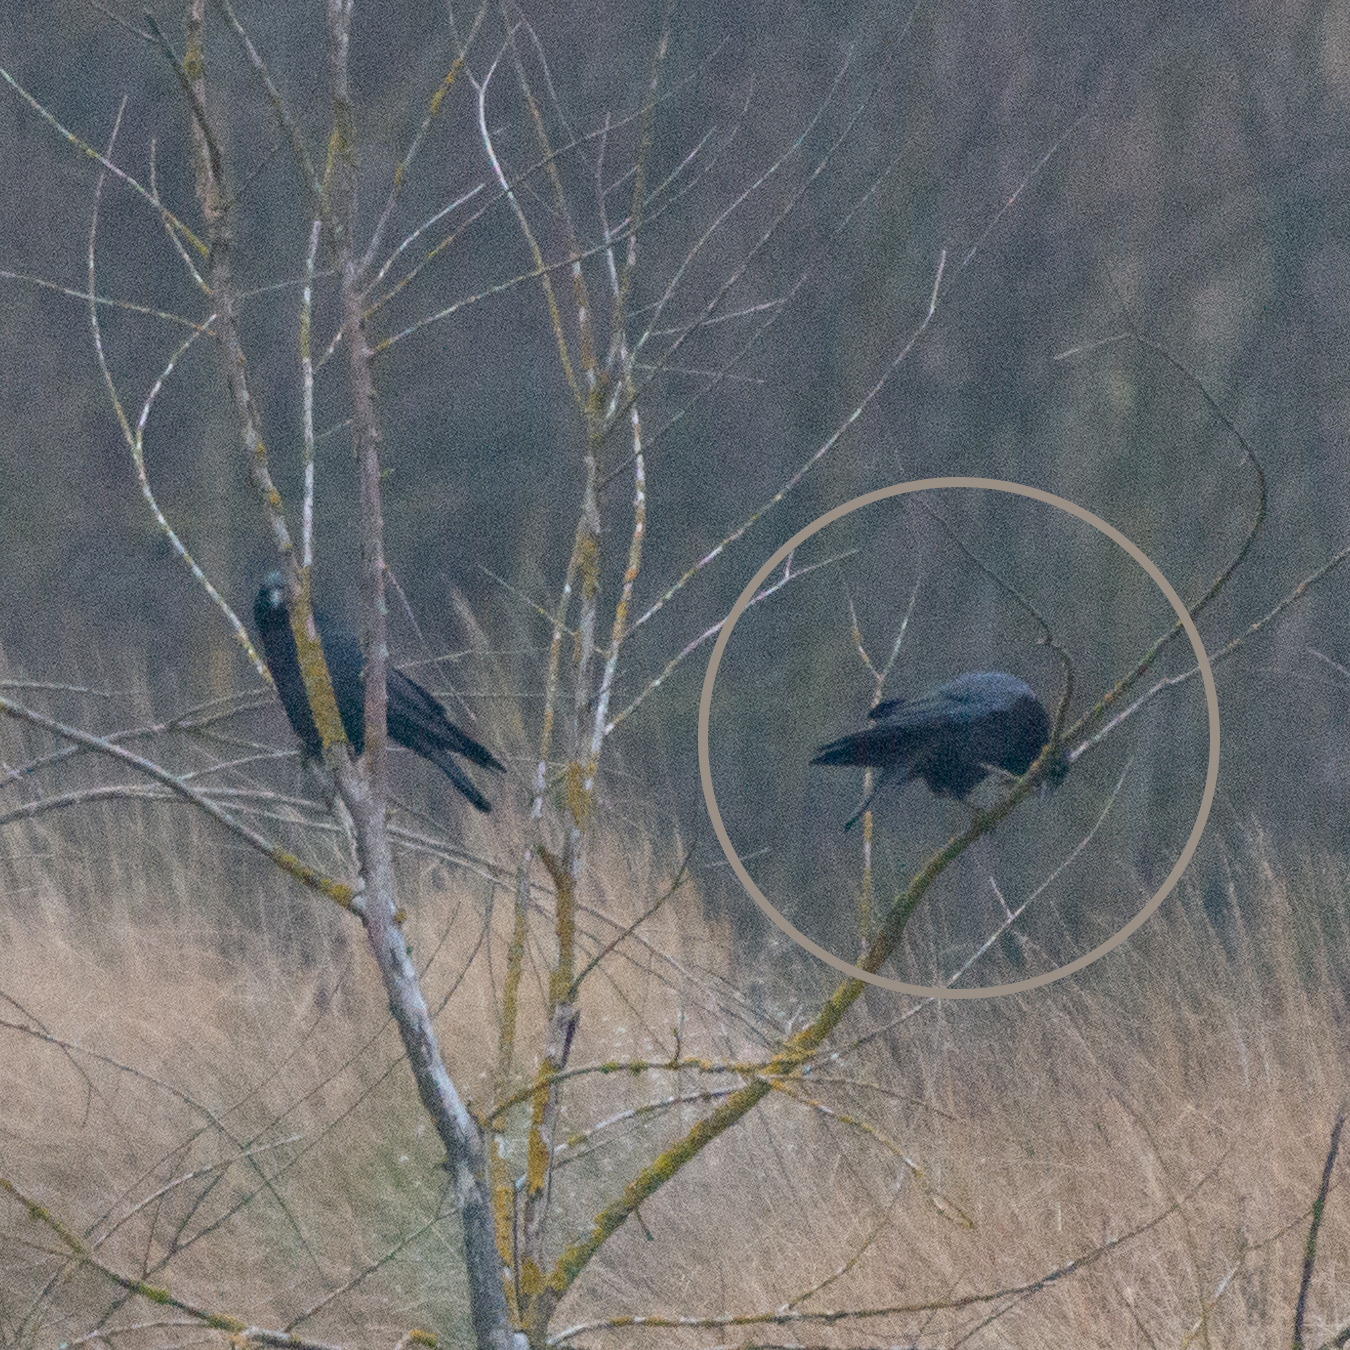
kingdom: Animalia
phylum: Chordata
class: Aves
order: Passeriformes
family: Corvidae
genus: Corvus
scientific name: Corvus corone
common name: Carrion crow
